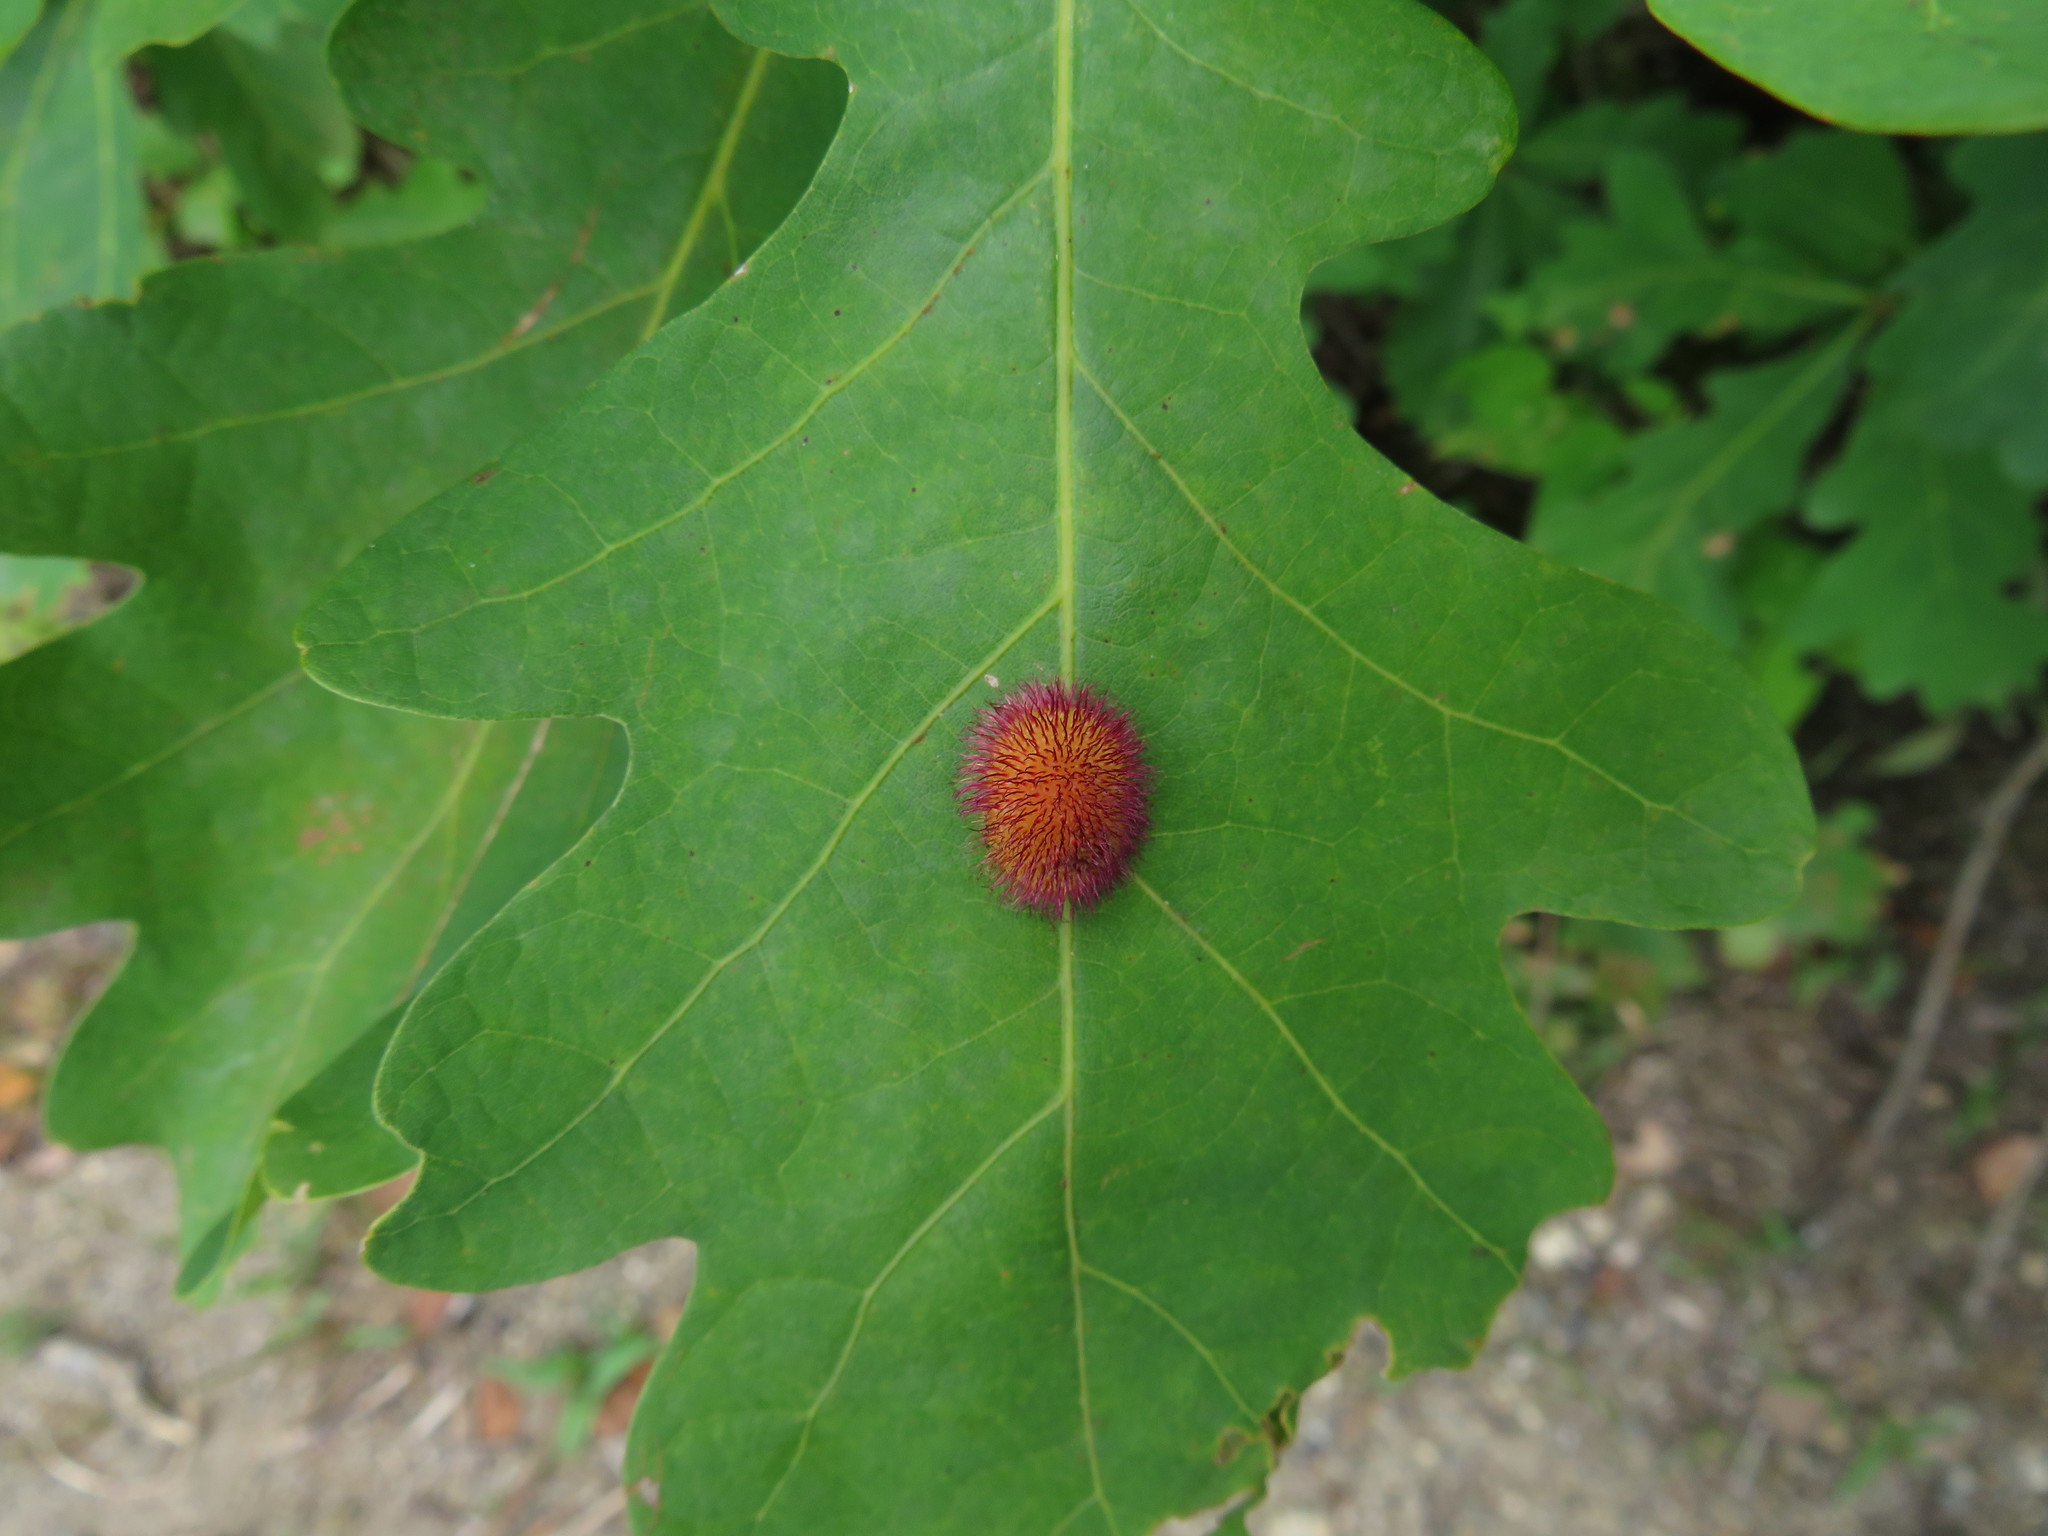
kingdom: Animalia
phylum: Arthropoda
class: Insecta
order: Hymenoptera
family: Cynipidae
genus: Acraspis
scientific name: Acraspis erinacei
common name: Hedgehog gall wasp
